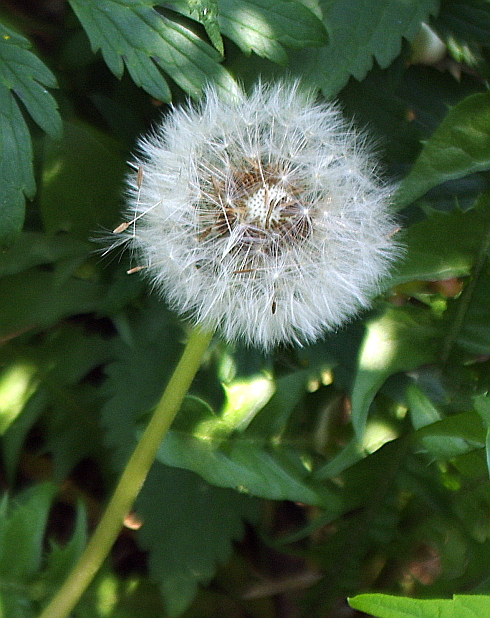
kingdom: Plantae
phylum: Tracheophyta
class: Magnoliopsida
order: Asterales
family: Asteraceae
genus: Taraxacum
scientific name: Taraxacum officinale
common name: Common dandelion
